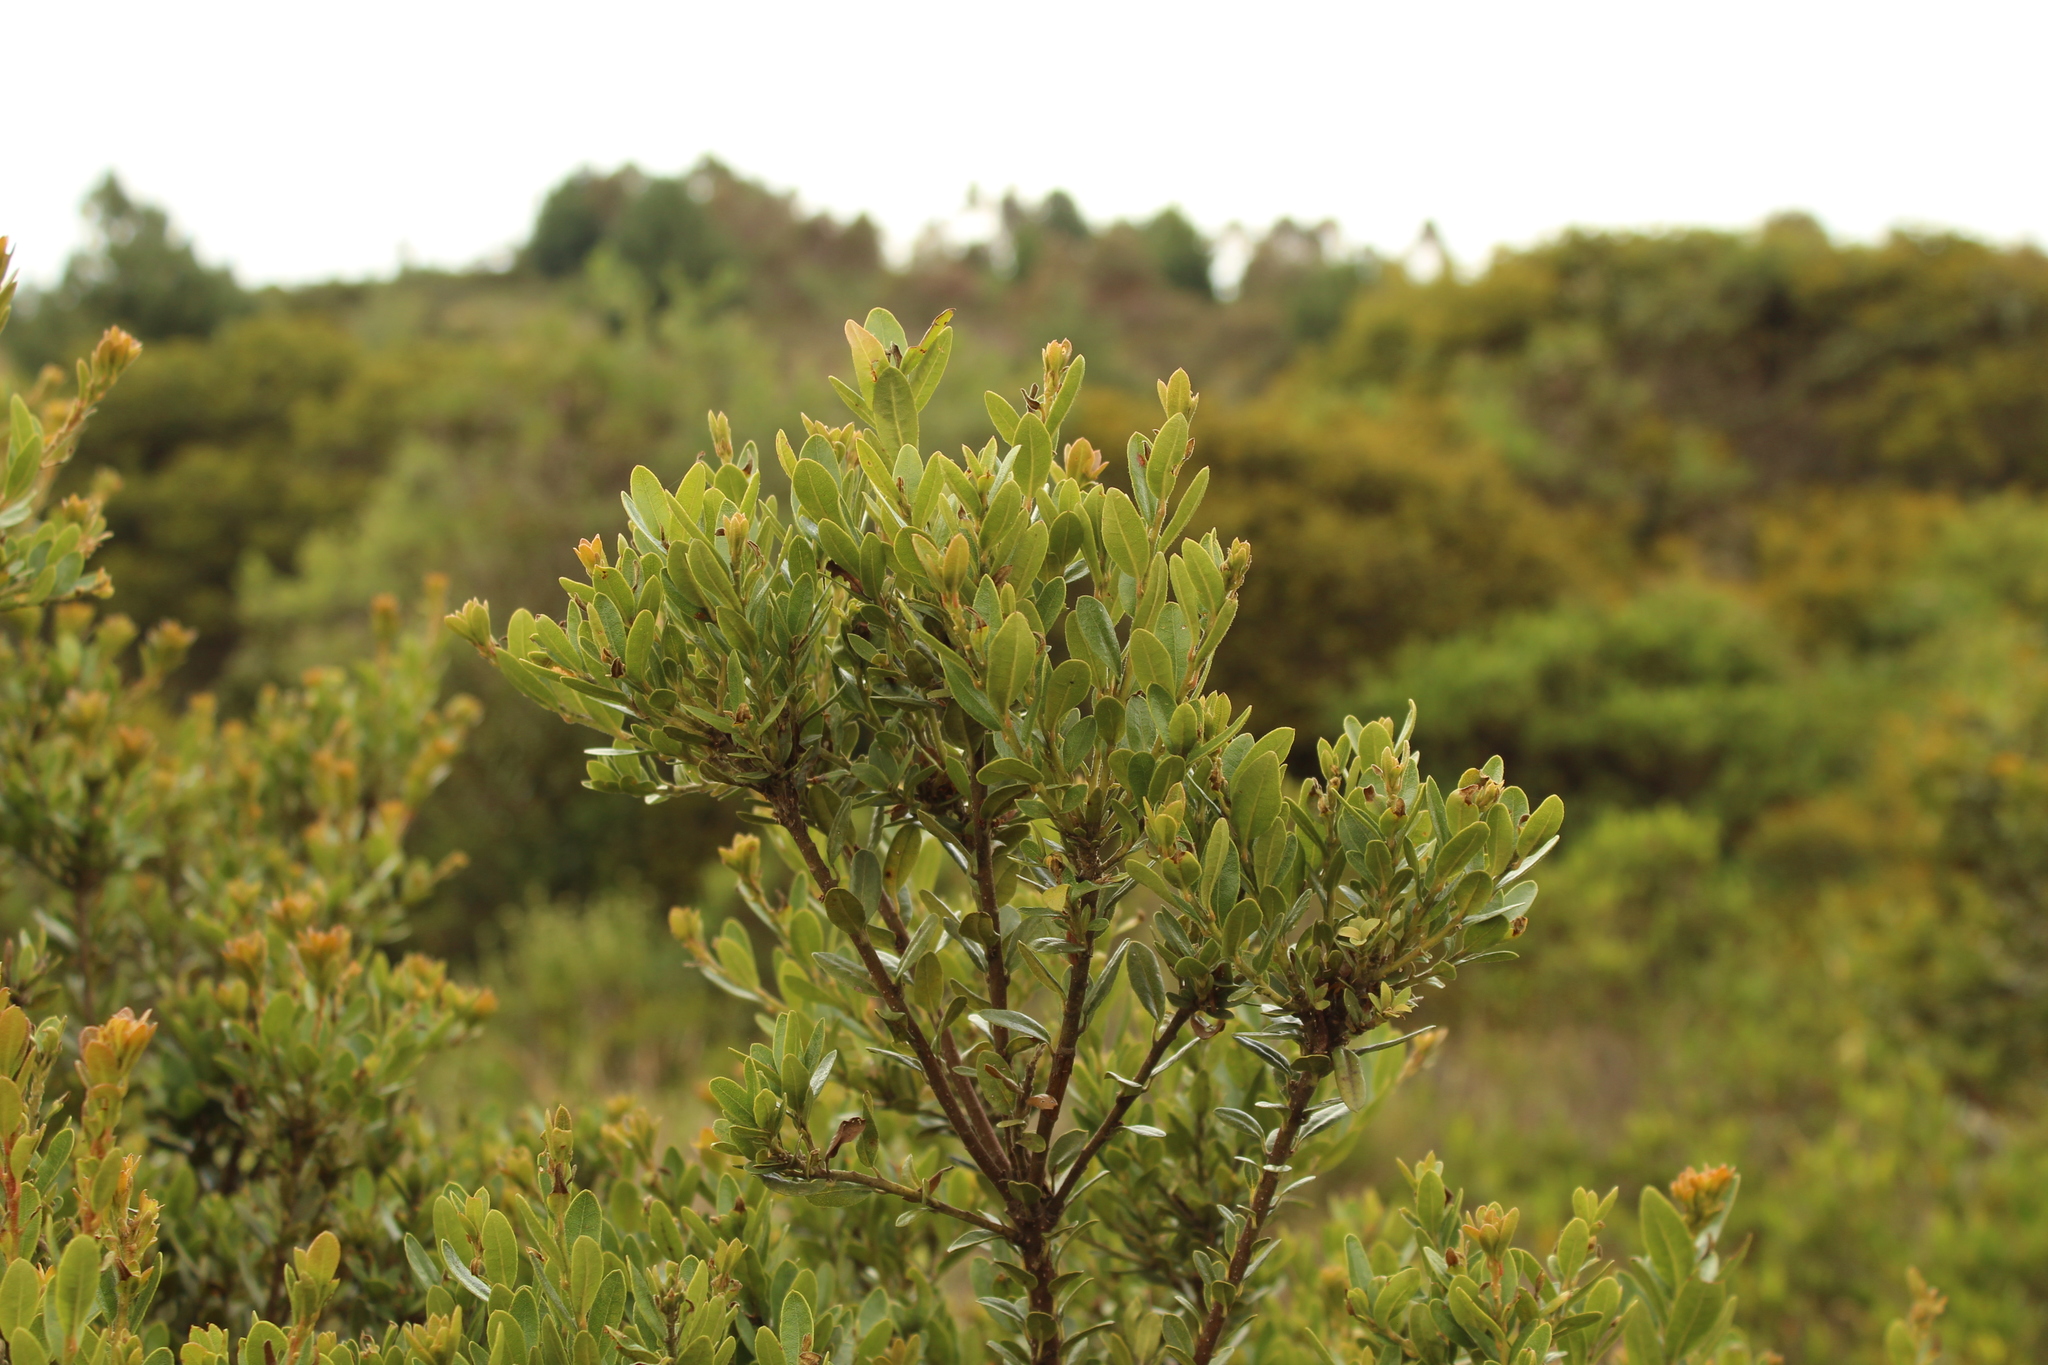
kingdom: Plantae
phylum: Tracheophyta
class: Magnoliopsida
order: Fagales
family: Myricaceae
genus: Morella
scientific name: Morella parvifolia
